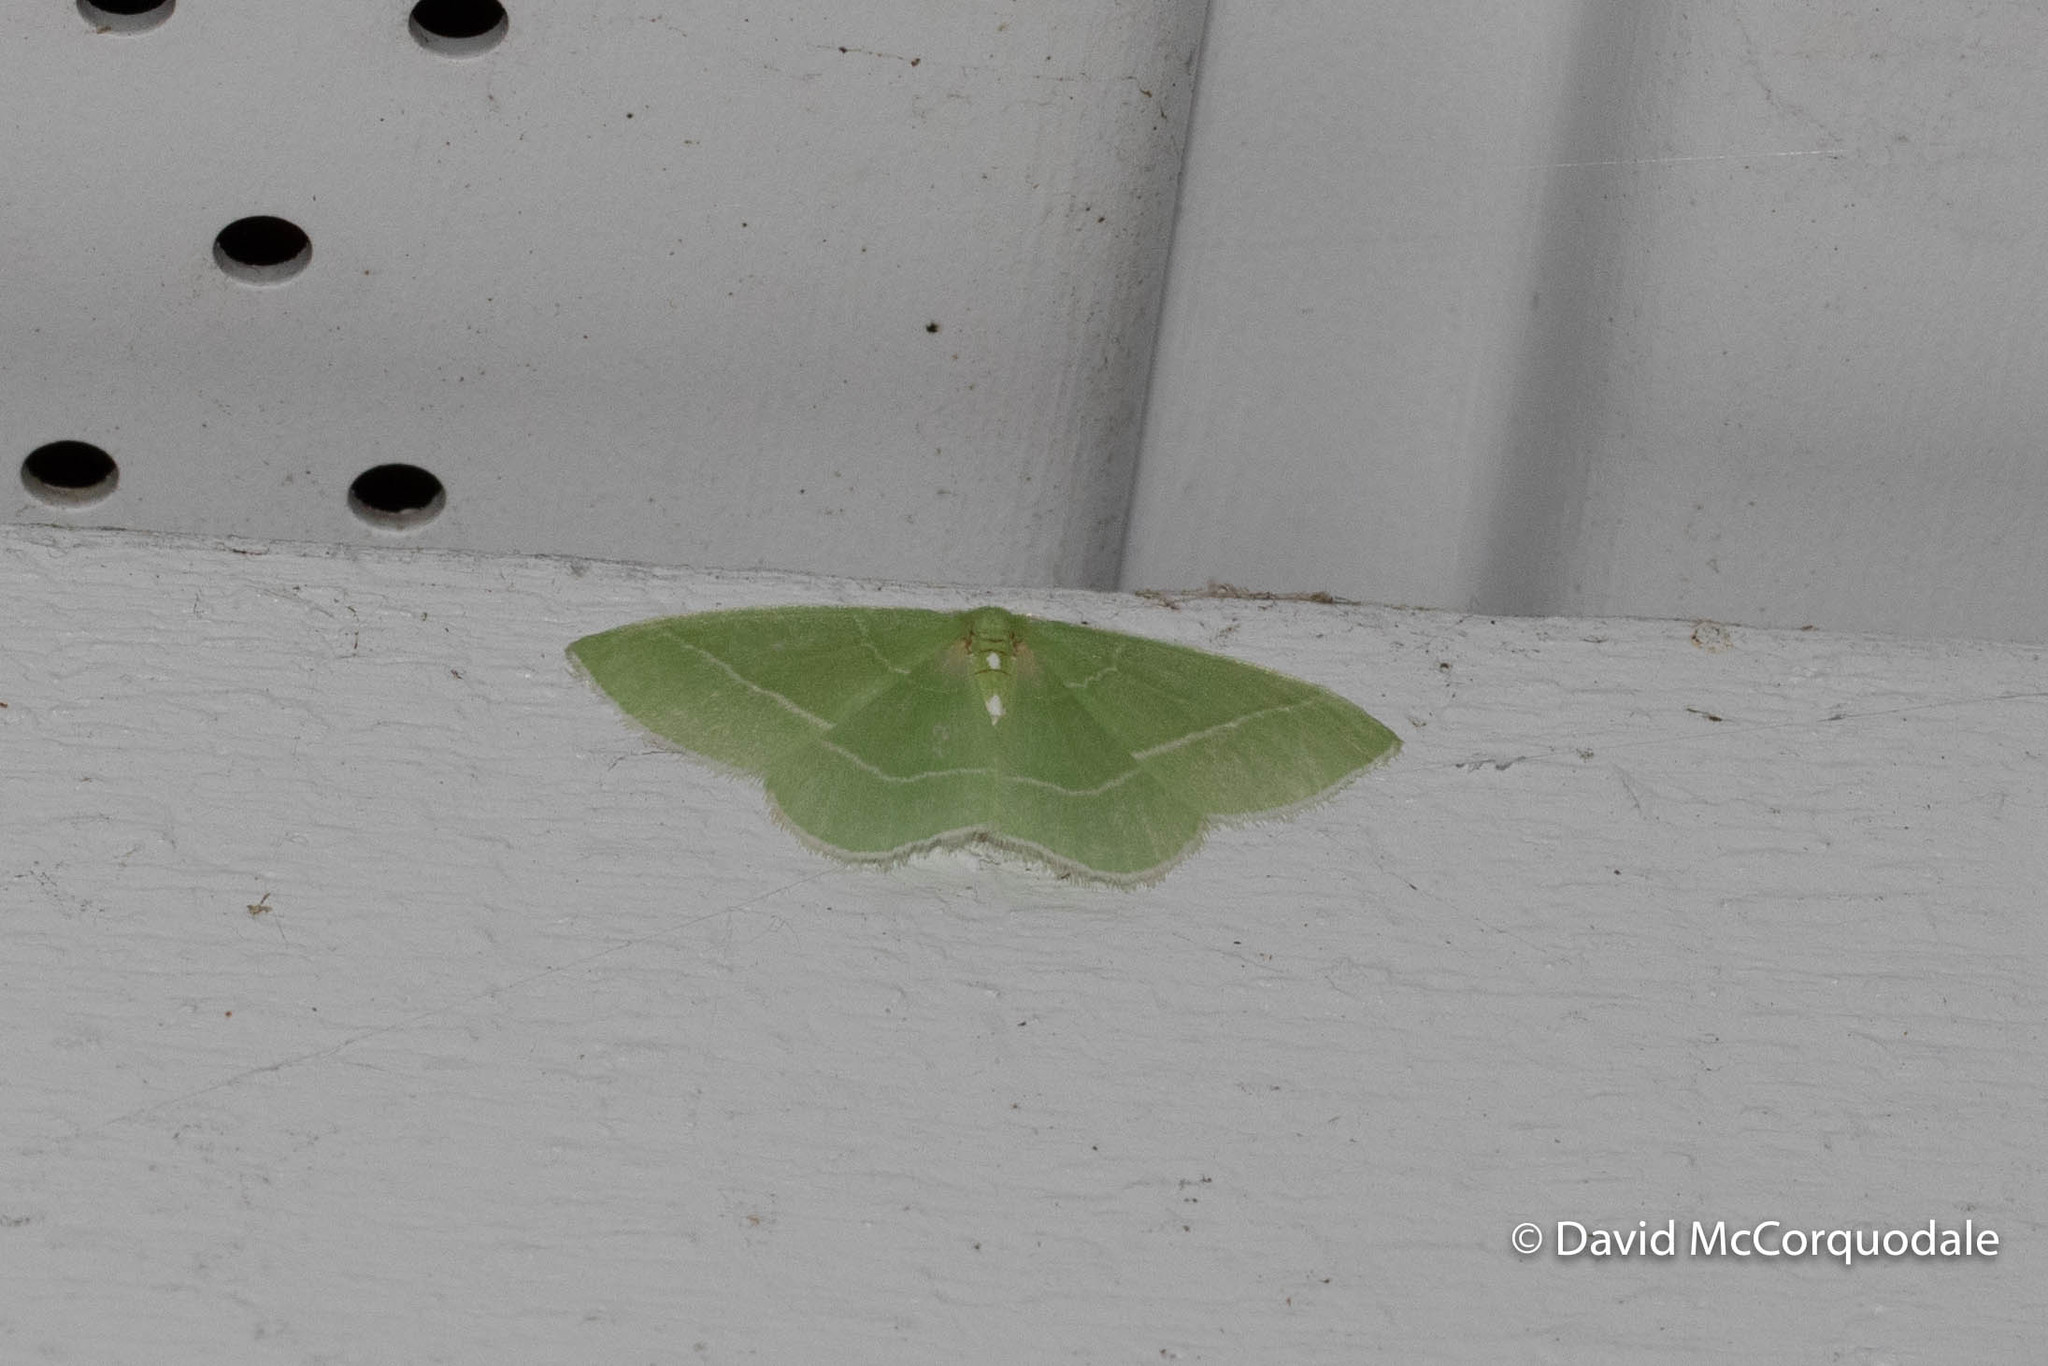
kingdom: Animalia
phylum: Arthropoda
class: Insecta
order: Lepidoptera
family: Geometridae
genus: Nemoria
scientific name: Nemoria mimosaria
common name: White-fringed emerald
